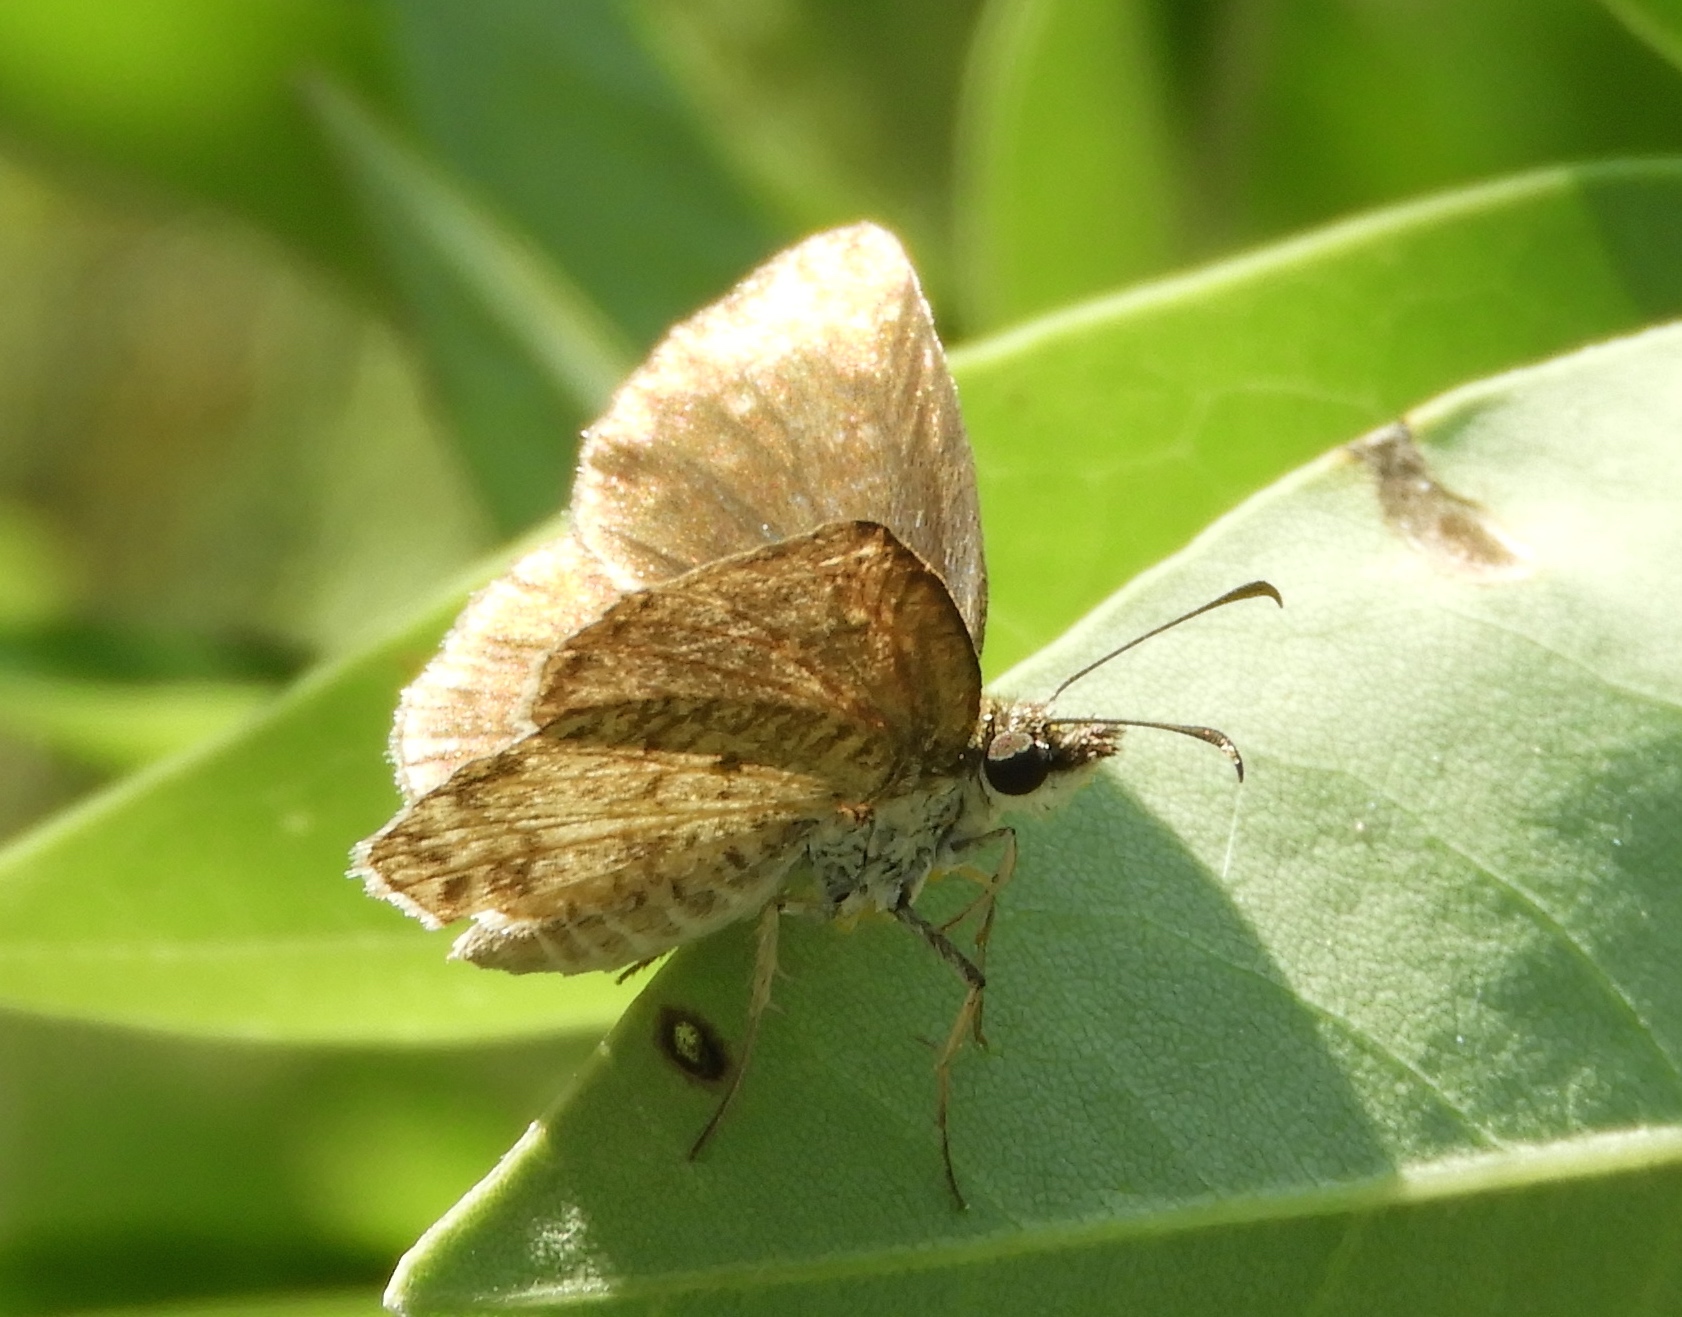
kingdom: Animalia
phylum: Arthropoda
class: Insecta
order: Lepidoptera
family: Hesperiidae
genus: Zopyrion
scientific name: Zopyrion sandace
